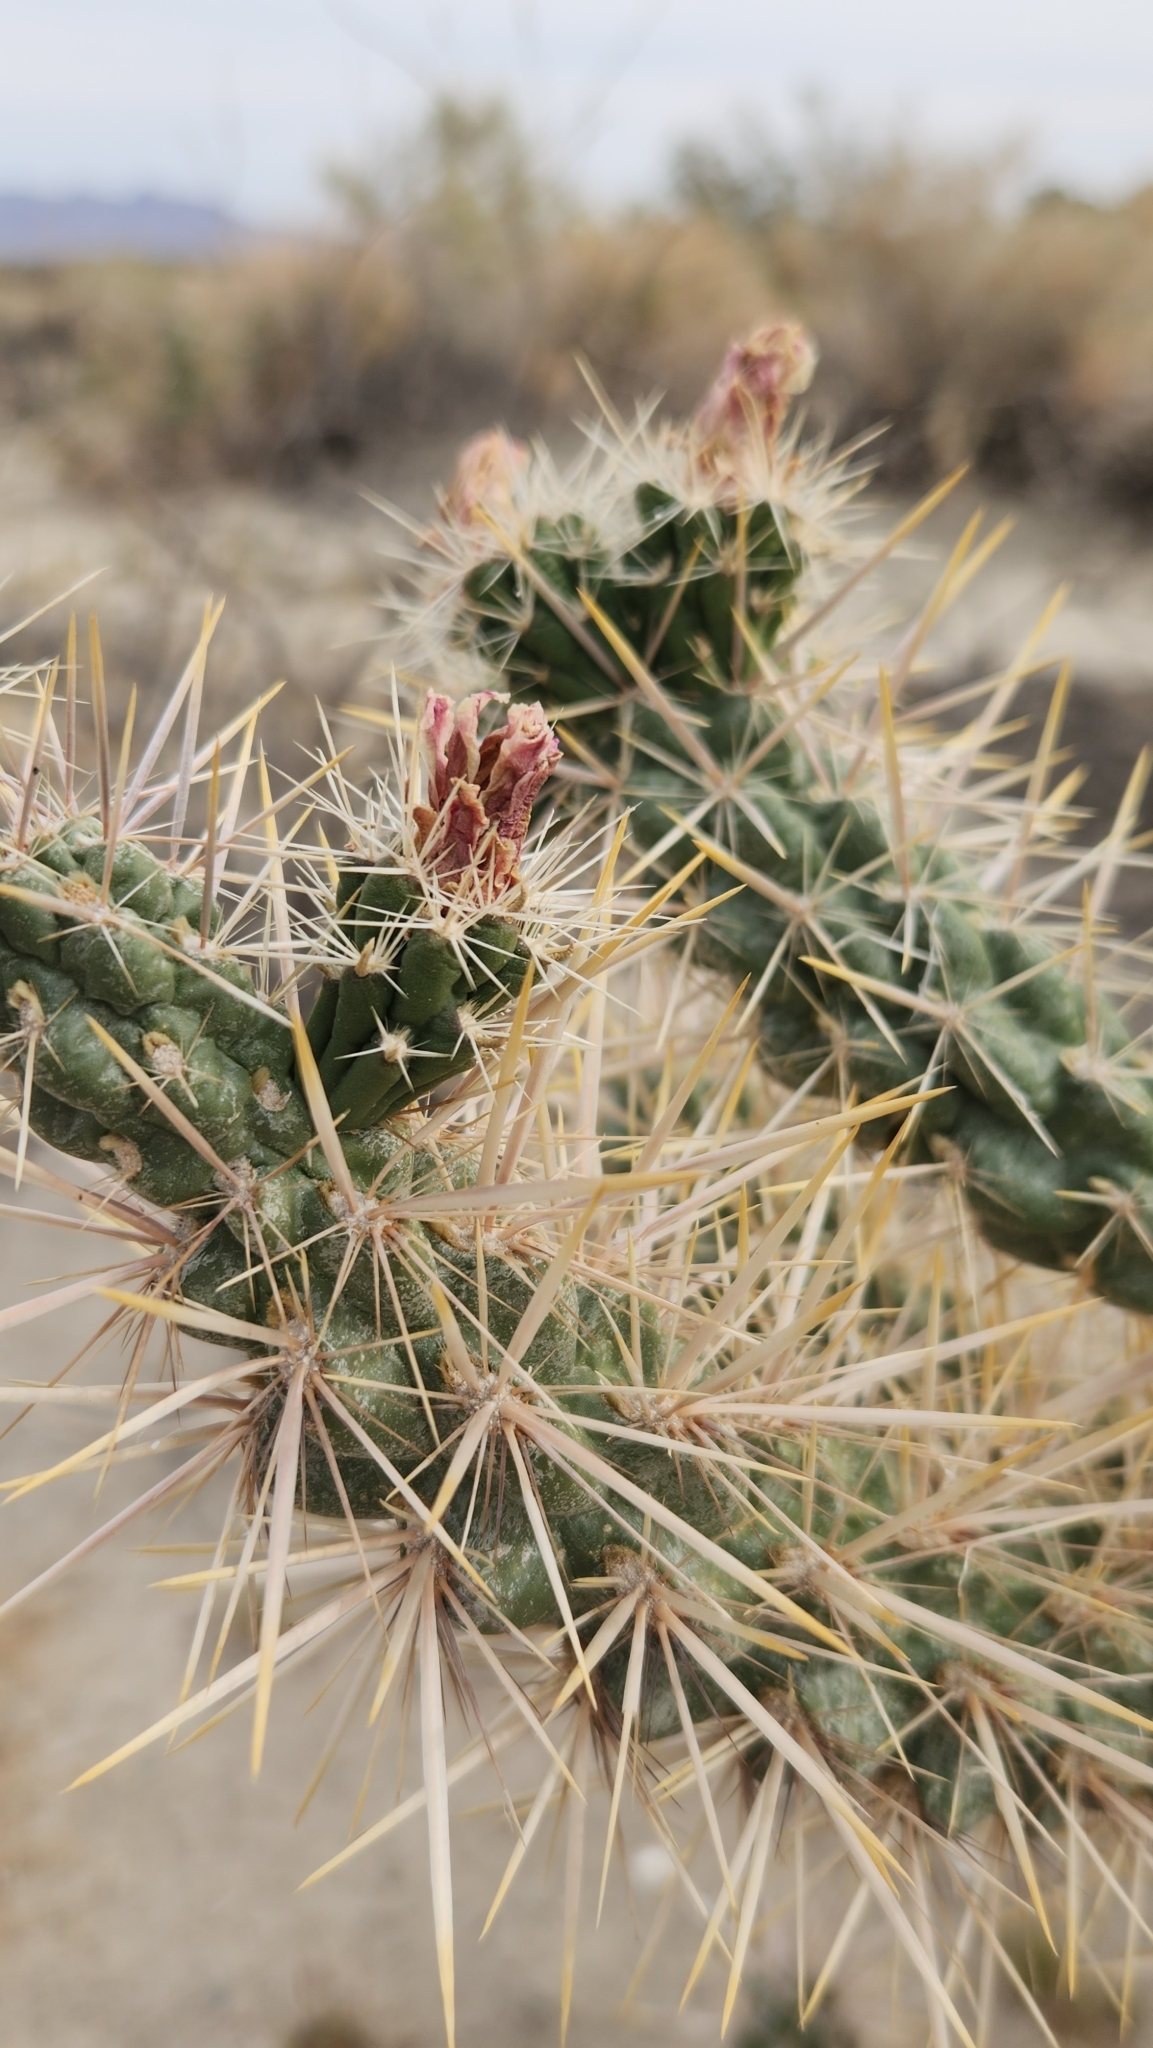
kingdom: Plantae
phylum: Tracheophyta
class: Magnoliopsida
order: Caryophyllales
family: Cactaceae
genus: Cylindropuntia
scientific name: Cylindropuntia echinocarpa
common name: Ground cholla
